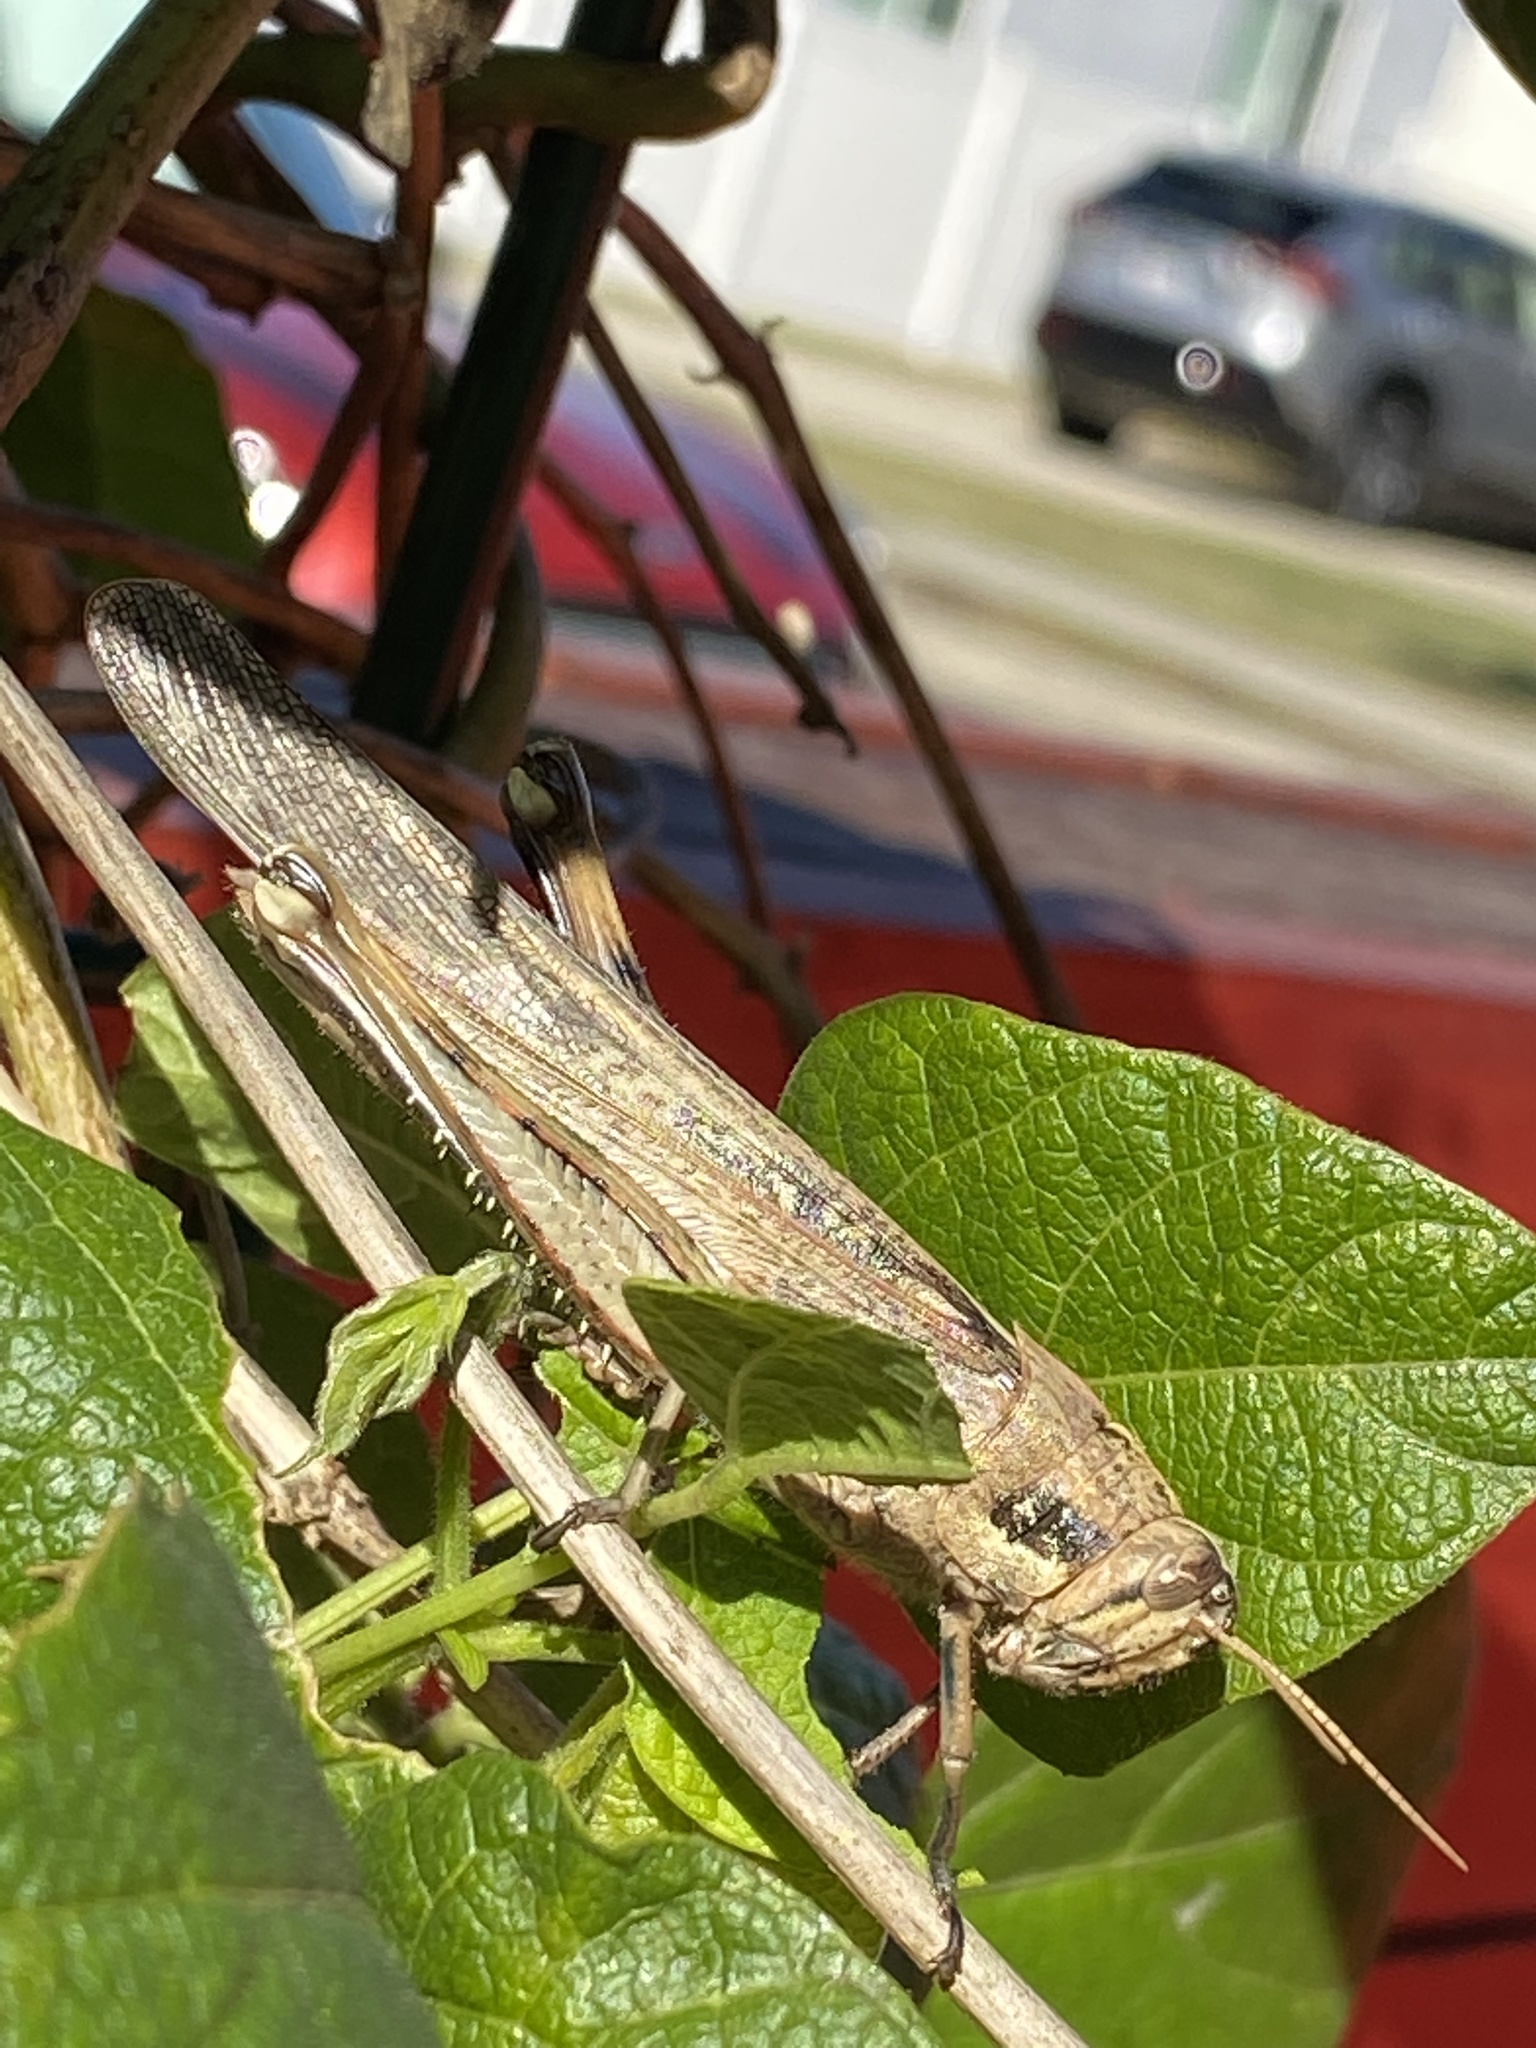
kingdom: Animalia
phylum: Arthropoda
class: Insecta
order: Orthoptera
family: Acrididae
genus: Schistocerca
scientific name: Schistocerca nitens
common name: Vagrant grasshopper
